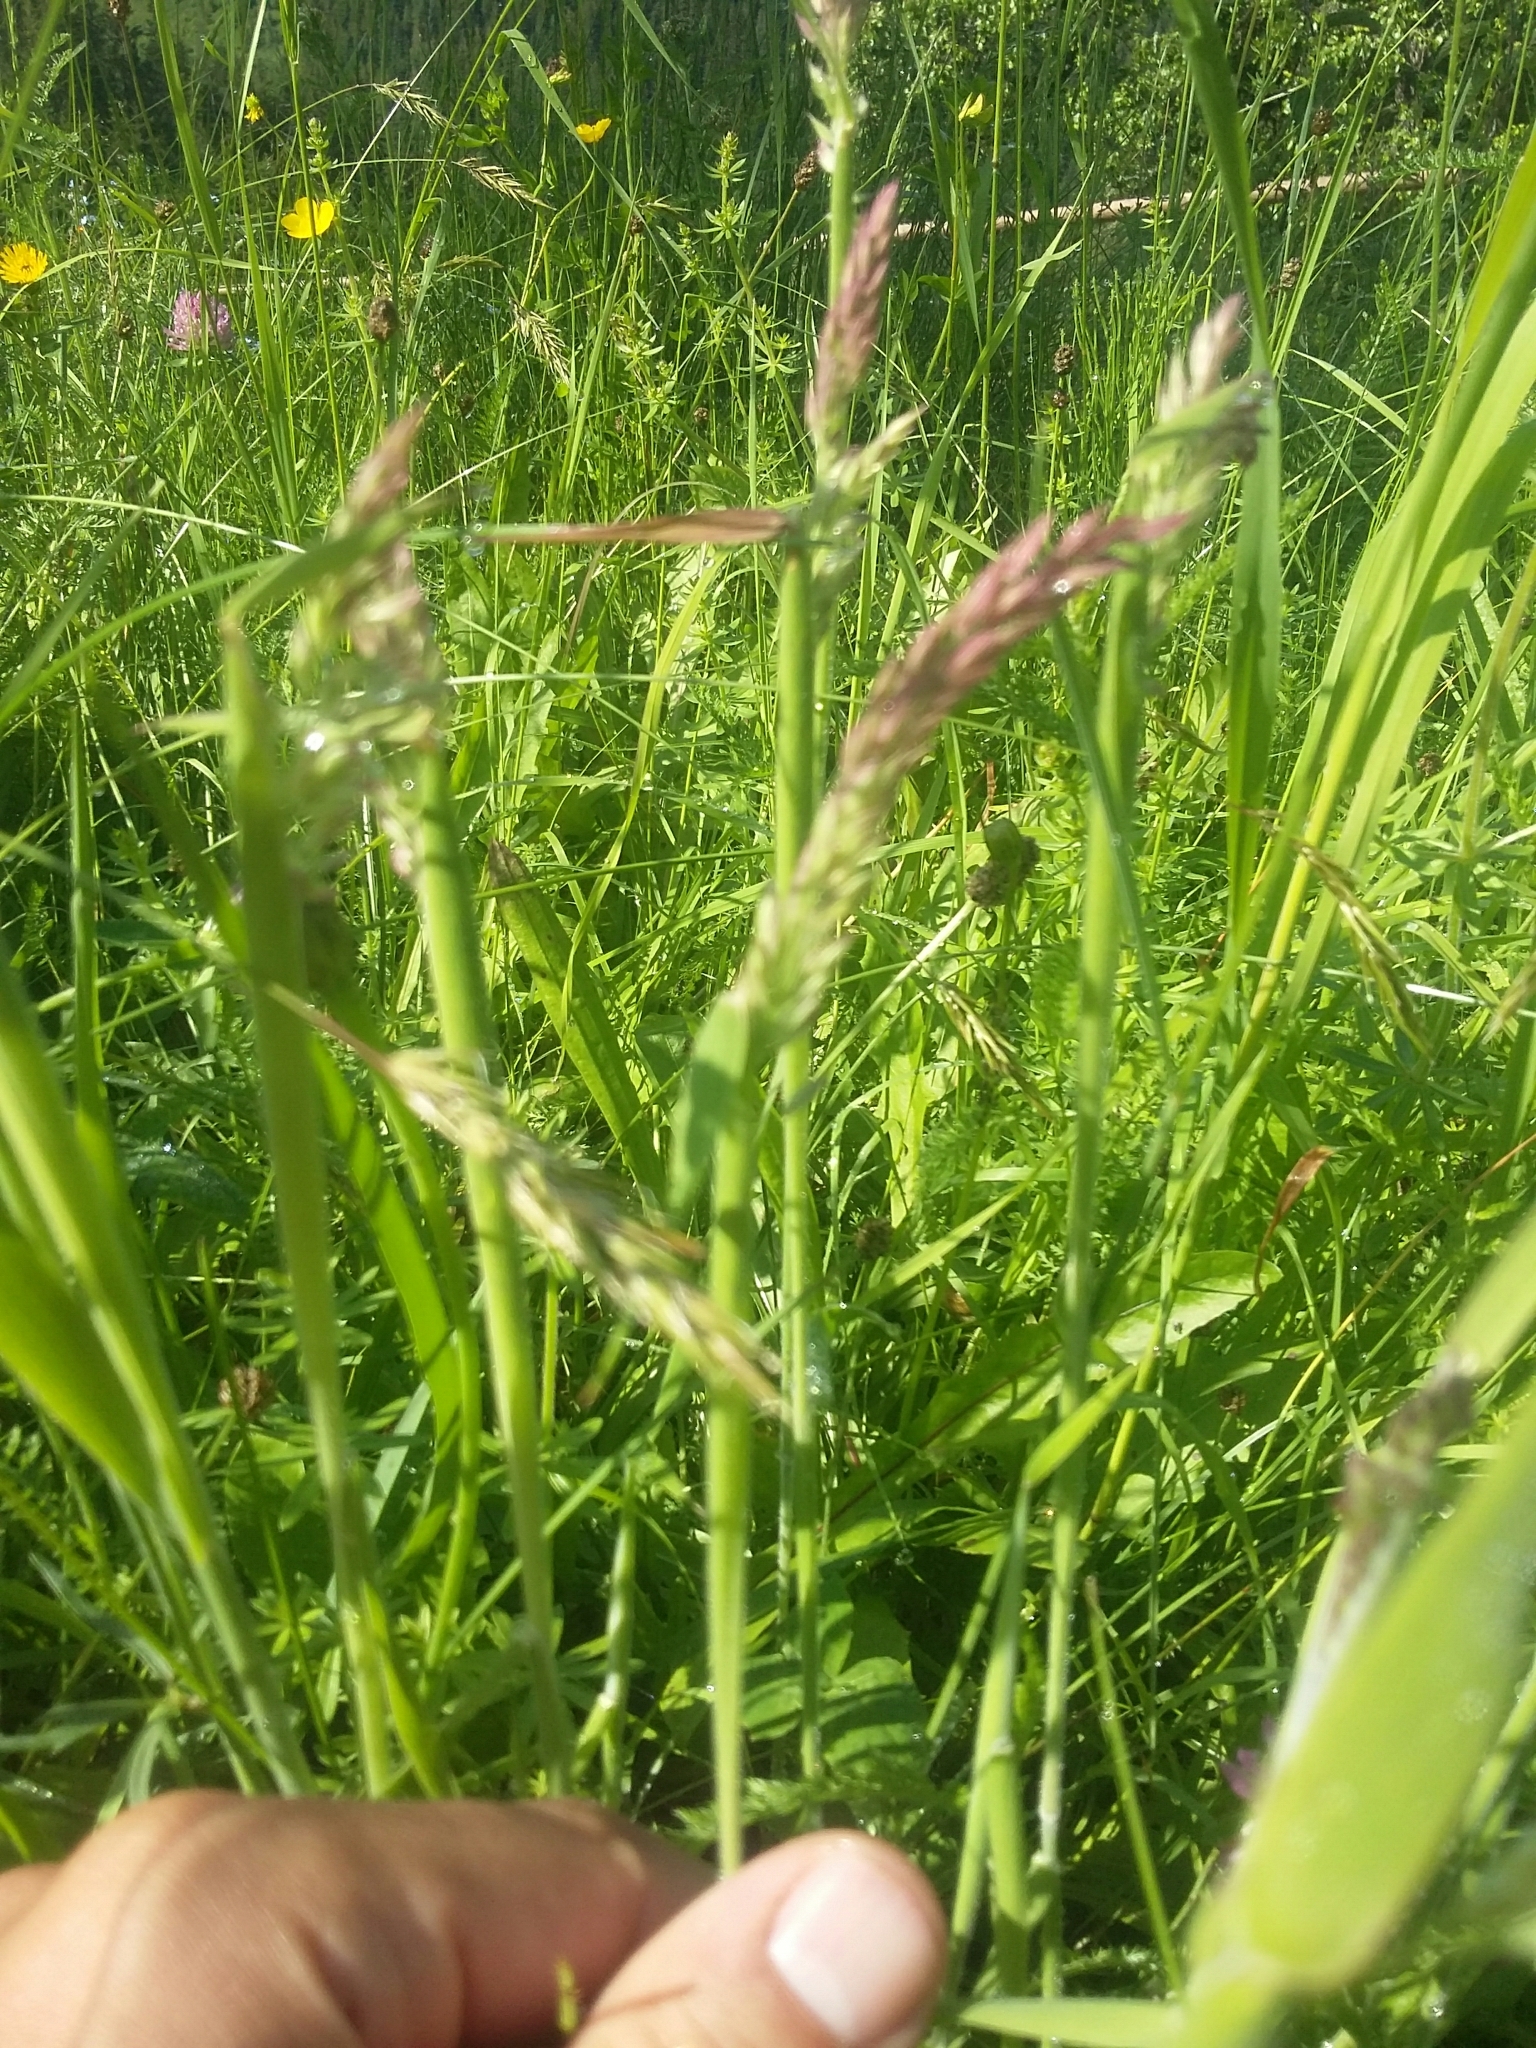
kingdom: Plantae
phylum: Tracheophyta
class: Liliopsida
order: Poales
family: Poaceae
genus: Holcus
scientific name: Holcus lanatus
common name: Yorkshire-fog
